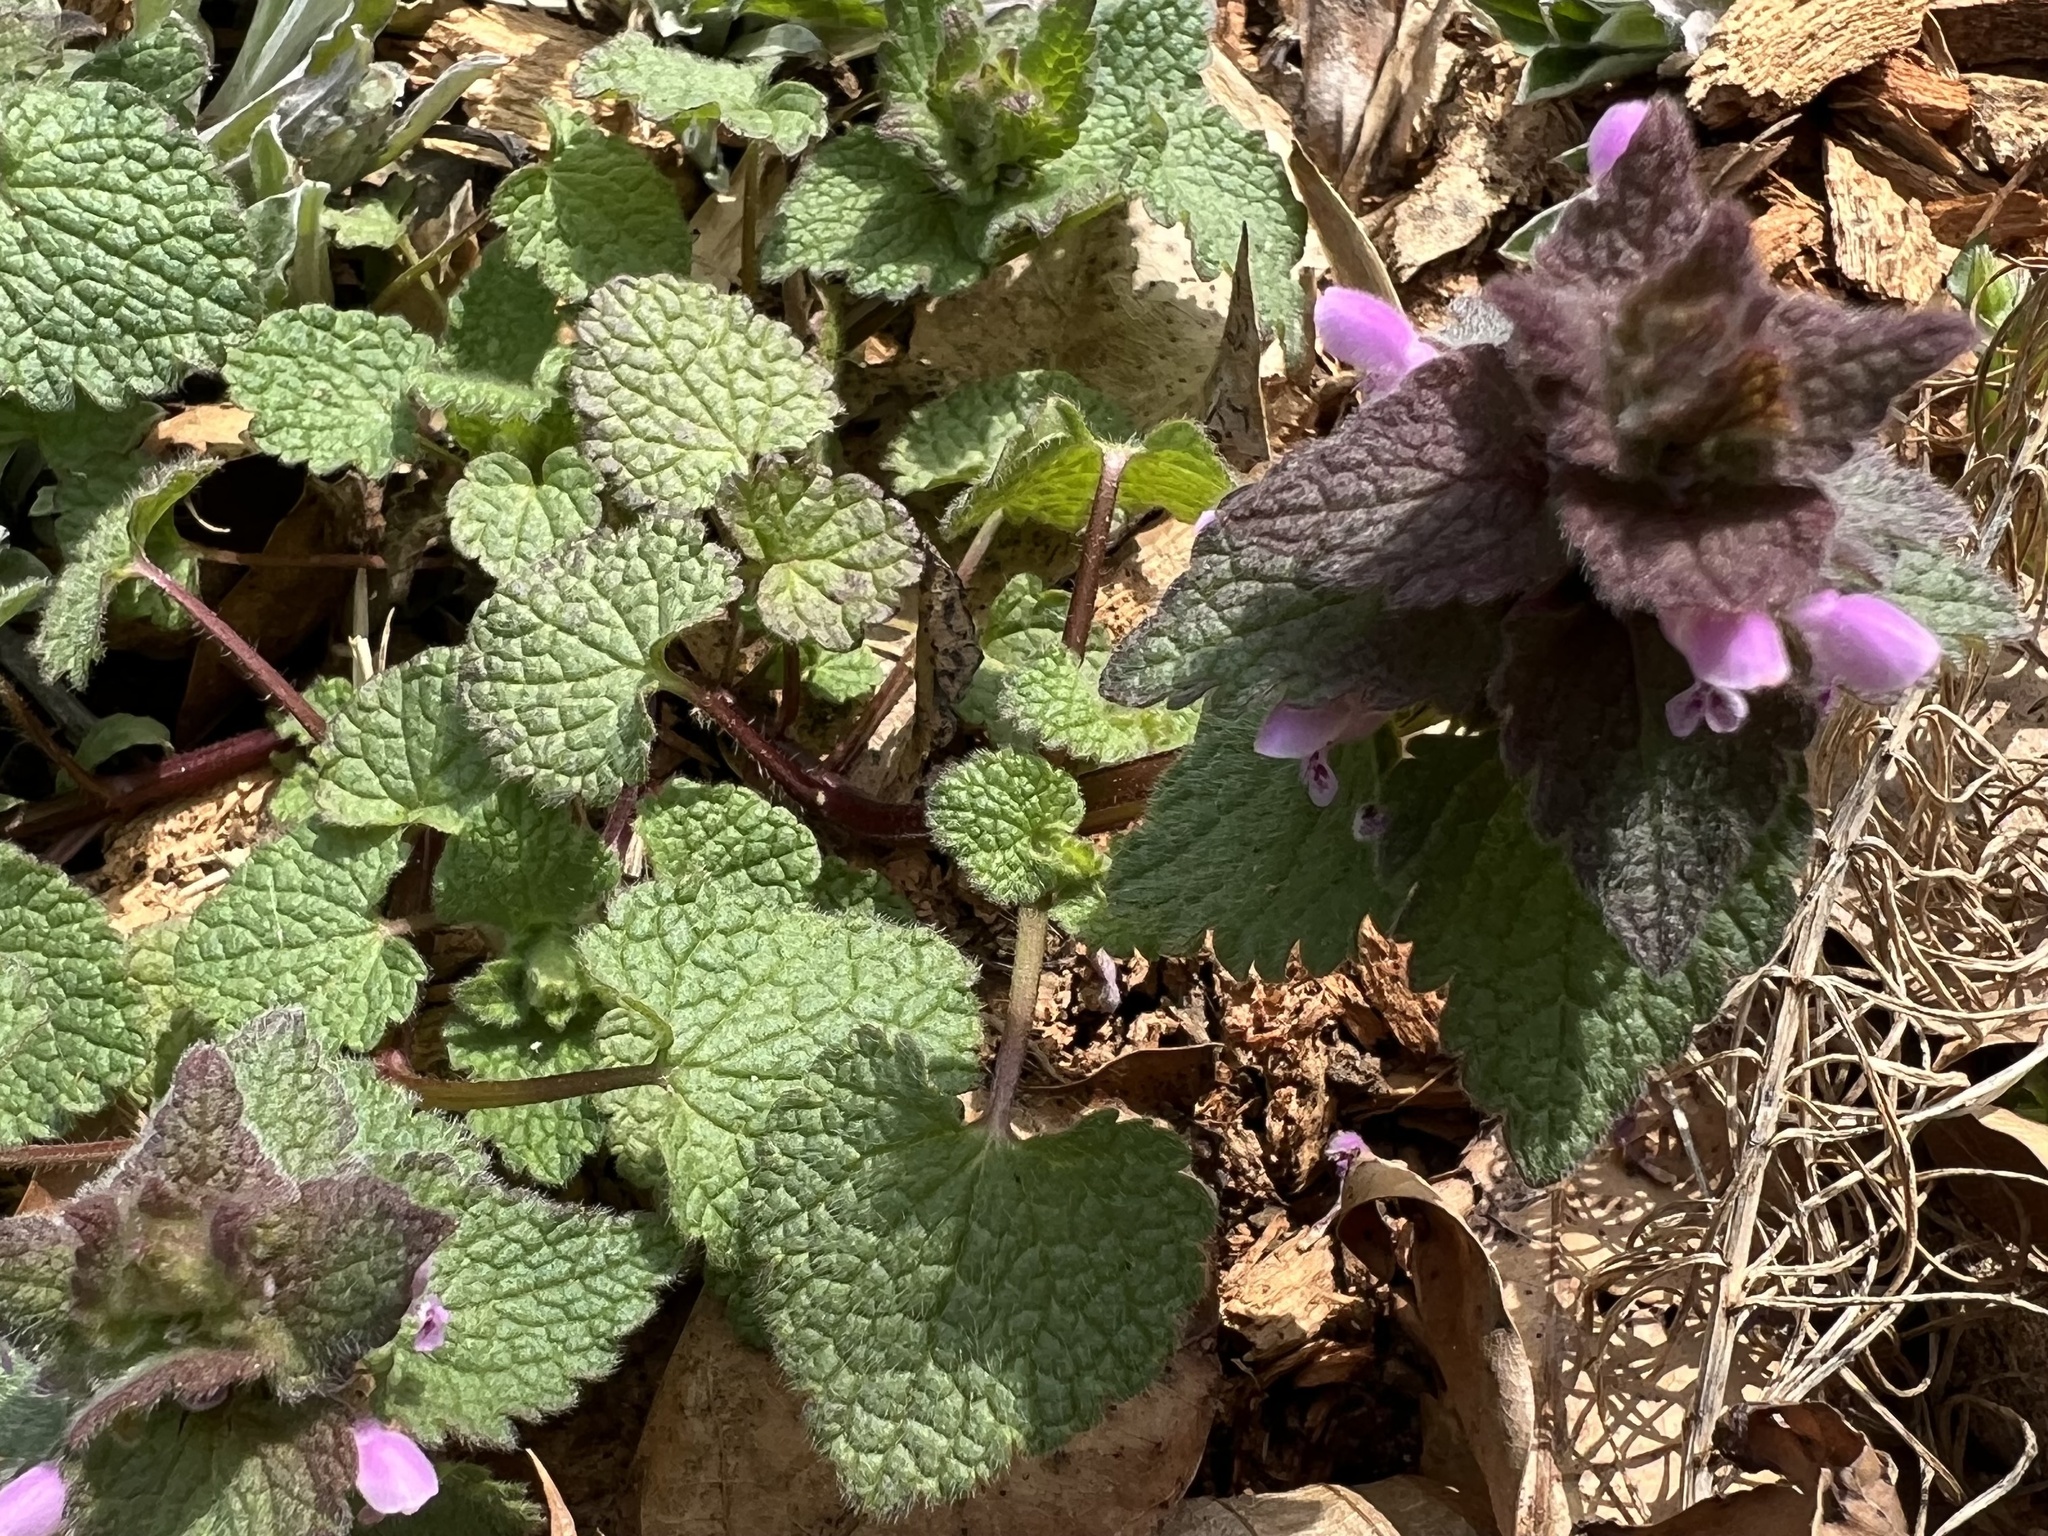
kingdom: Plantae
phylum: Tracheophyta
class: Magnoliopsida
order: Lamiales
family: Lamiaceae
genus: Lamium
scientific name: Lamium purpureum
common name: Red dead-nettle
